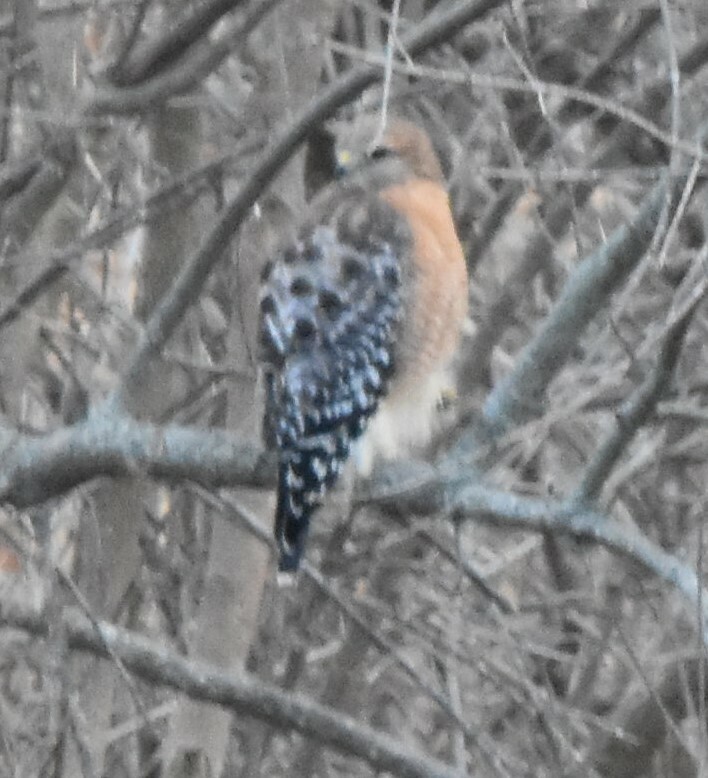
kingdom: Animalia
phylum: Chordata
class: Aves
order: Accipitriformes
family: Accipitridae
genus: Buteo
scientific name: Buteo lineatus
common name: Red-shouldered hawk
